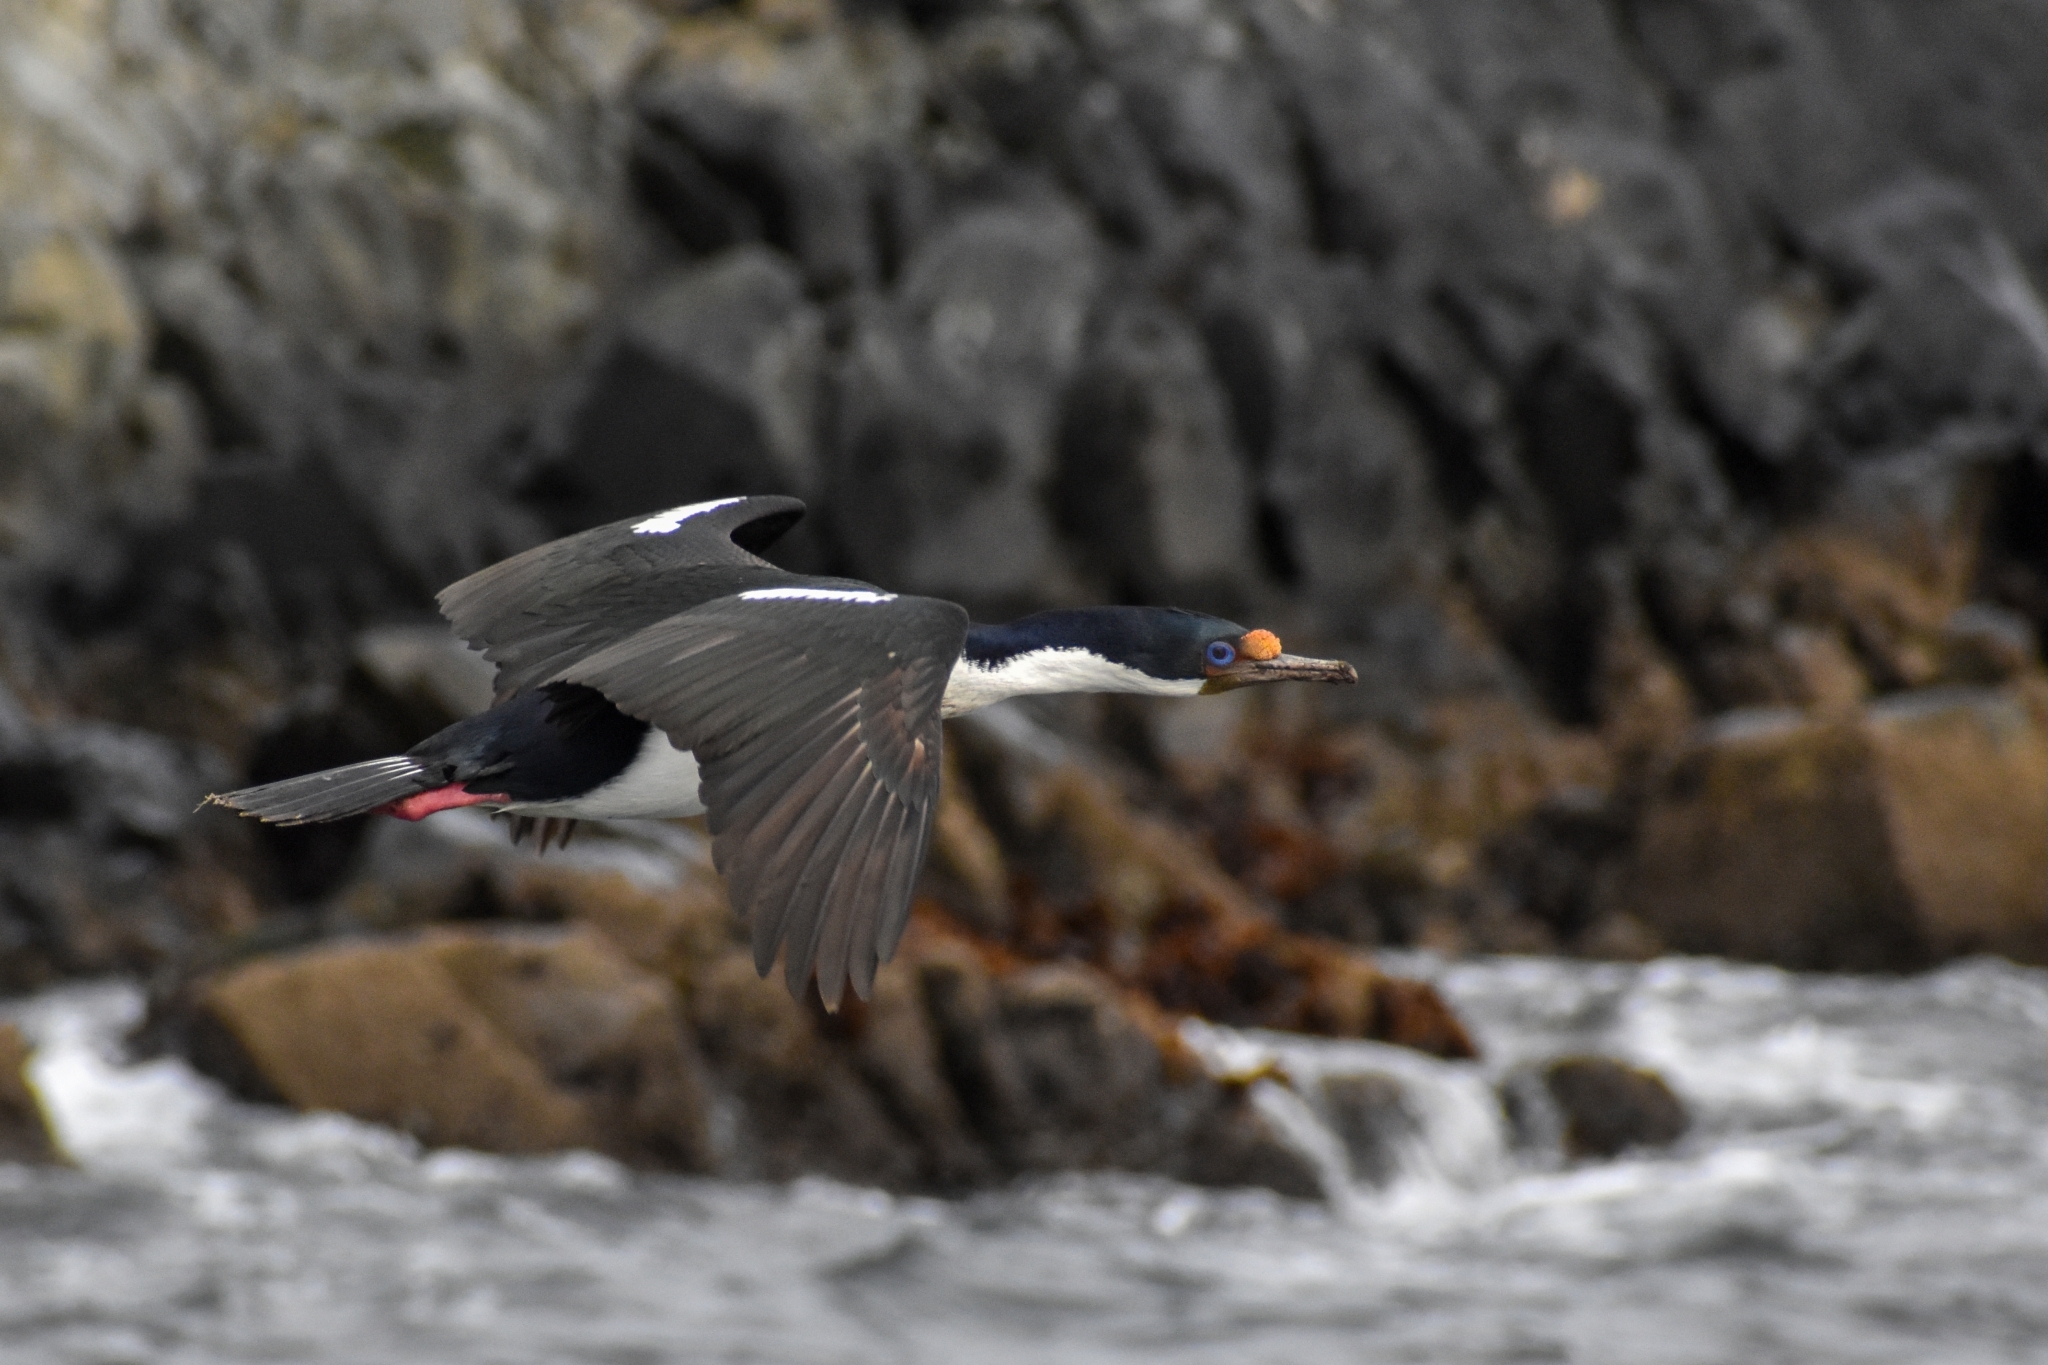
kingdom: Animalia
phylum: Chordata
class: Aves
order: Suliformes
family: Phalacrocoracidae
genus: Leucocarbo
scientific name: Leucocarbo atriceps
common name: Imperial shag
